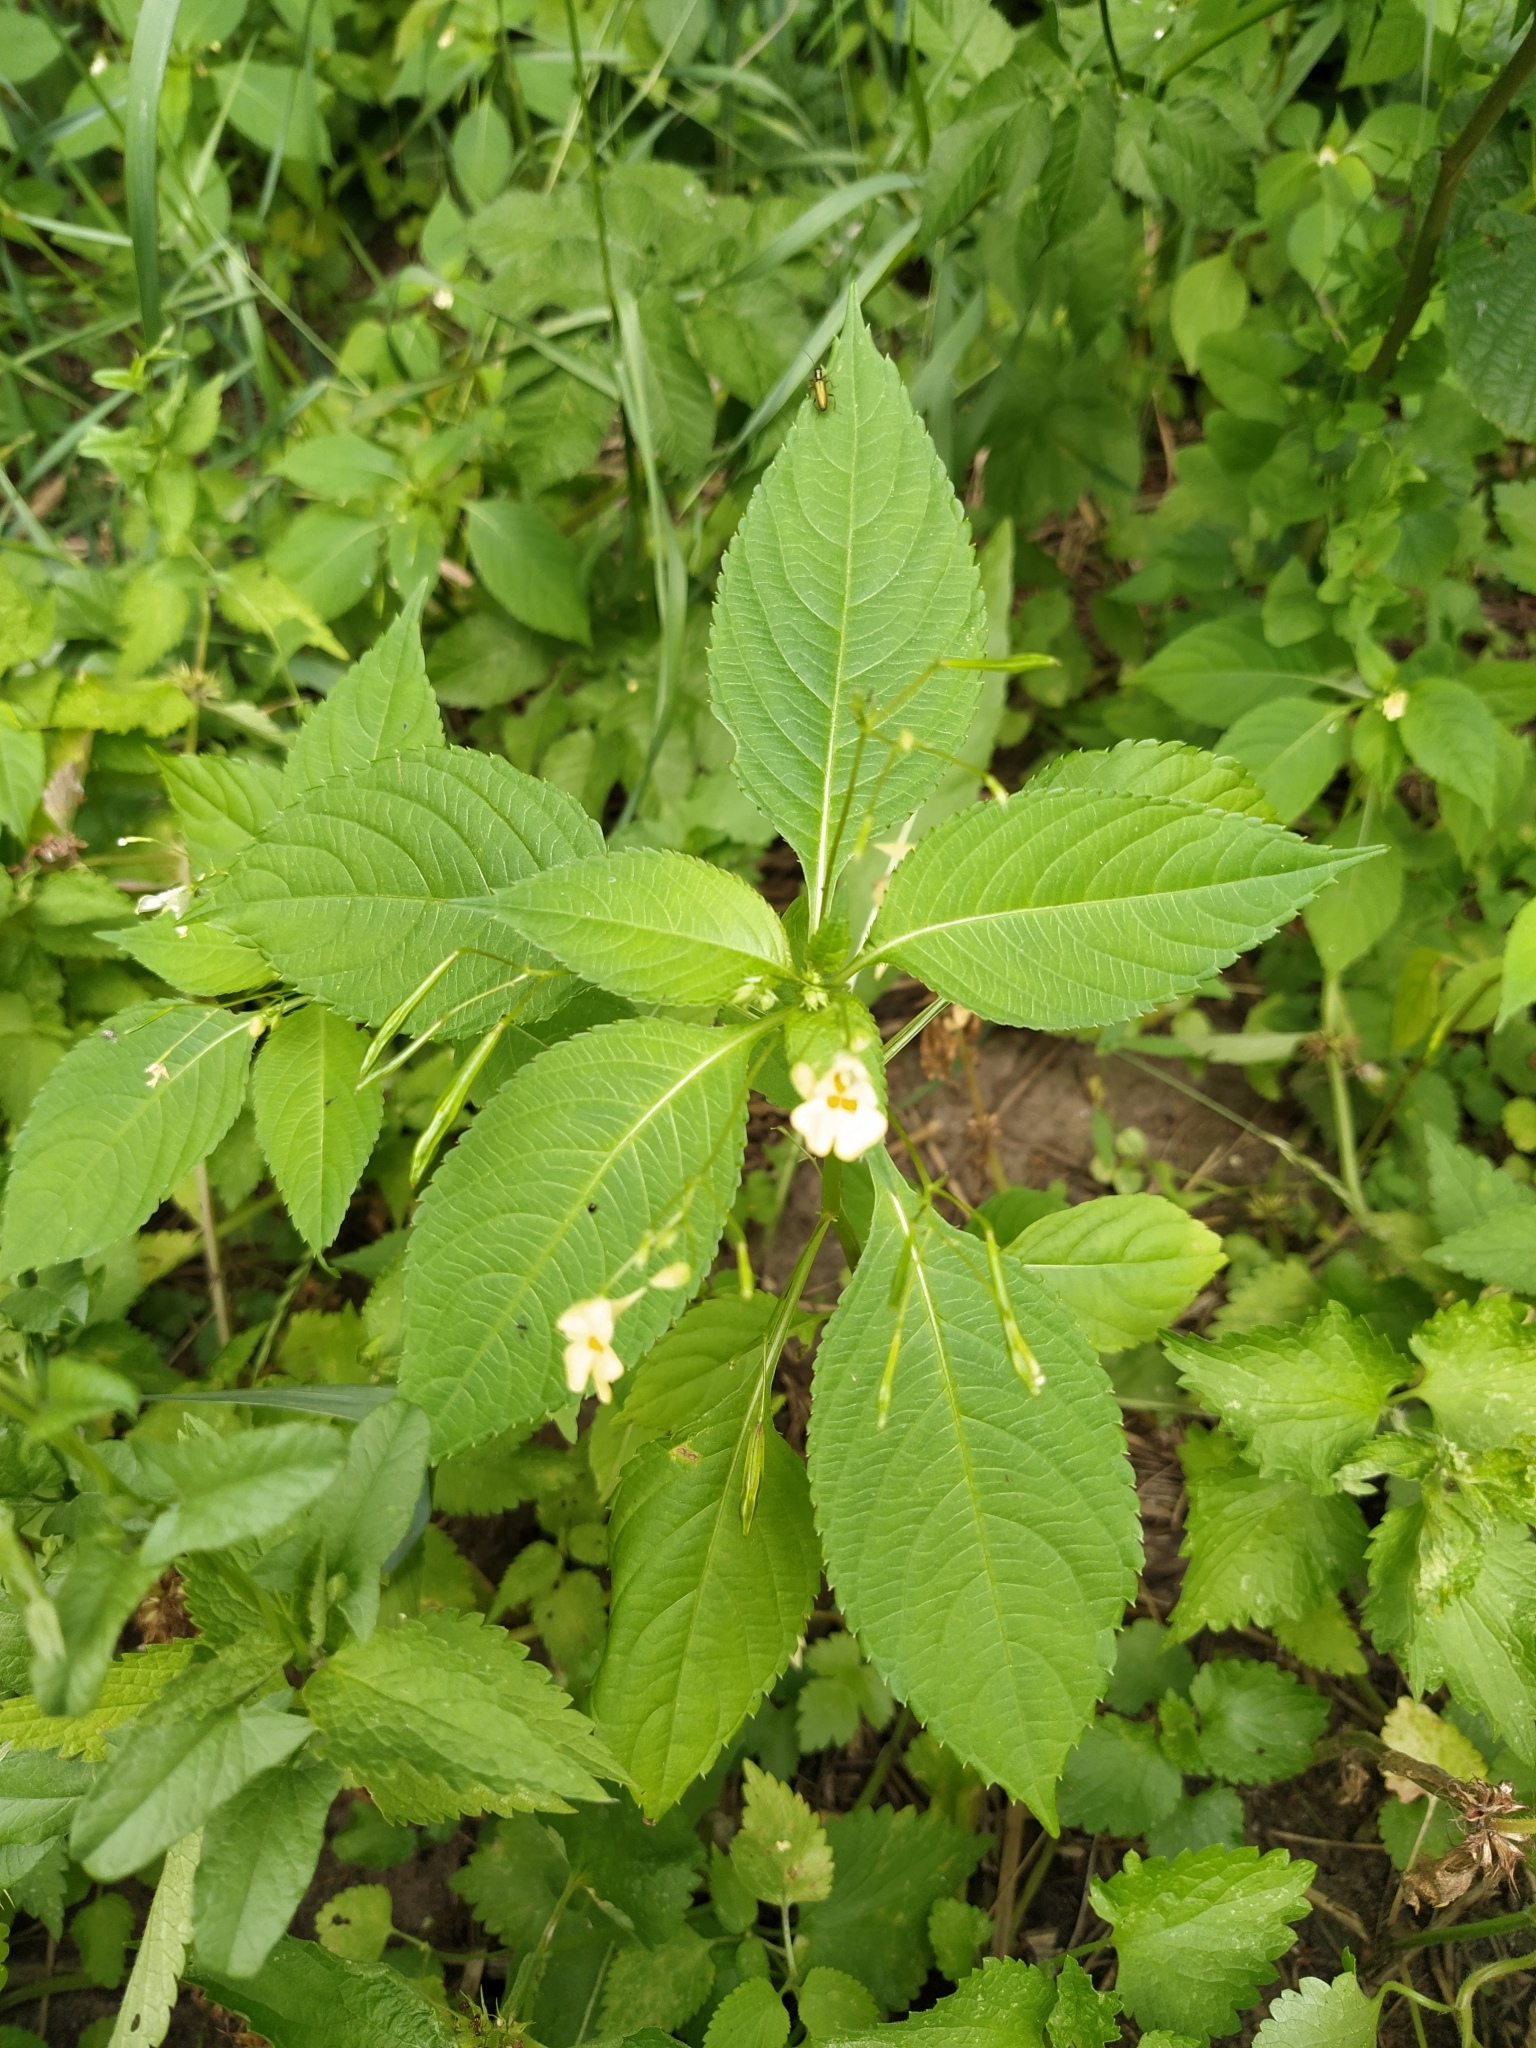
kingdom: Plantae
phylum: Tracheophyta
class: Magnoliopsida
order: Ericales
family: Balsaminaceae
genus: Impatiens
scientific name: Impatiens parviflora
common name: Small balsam
